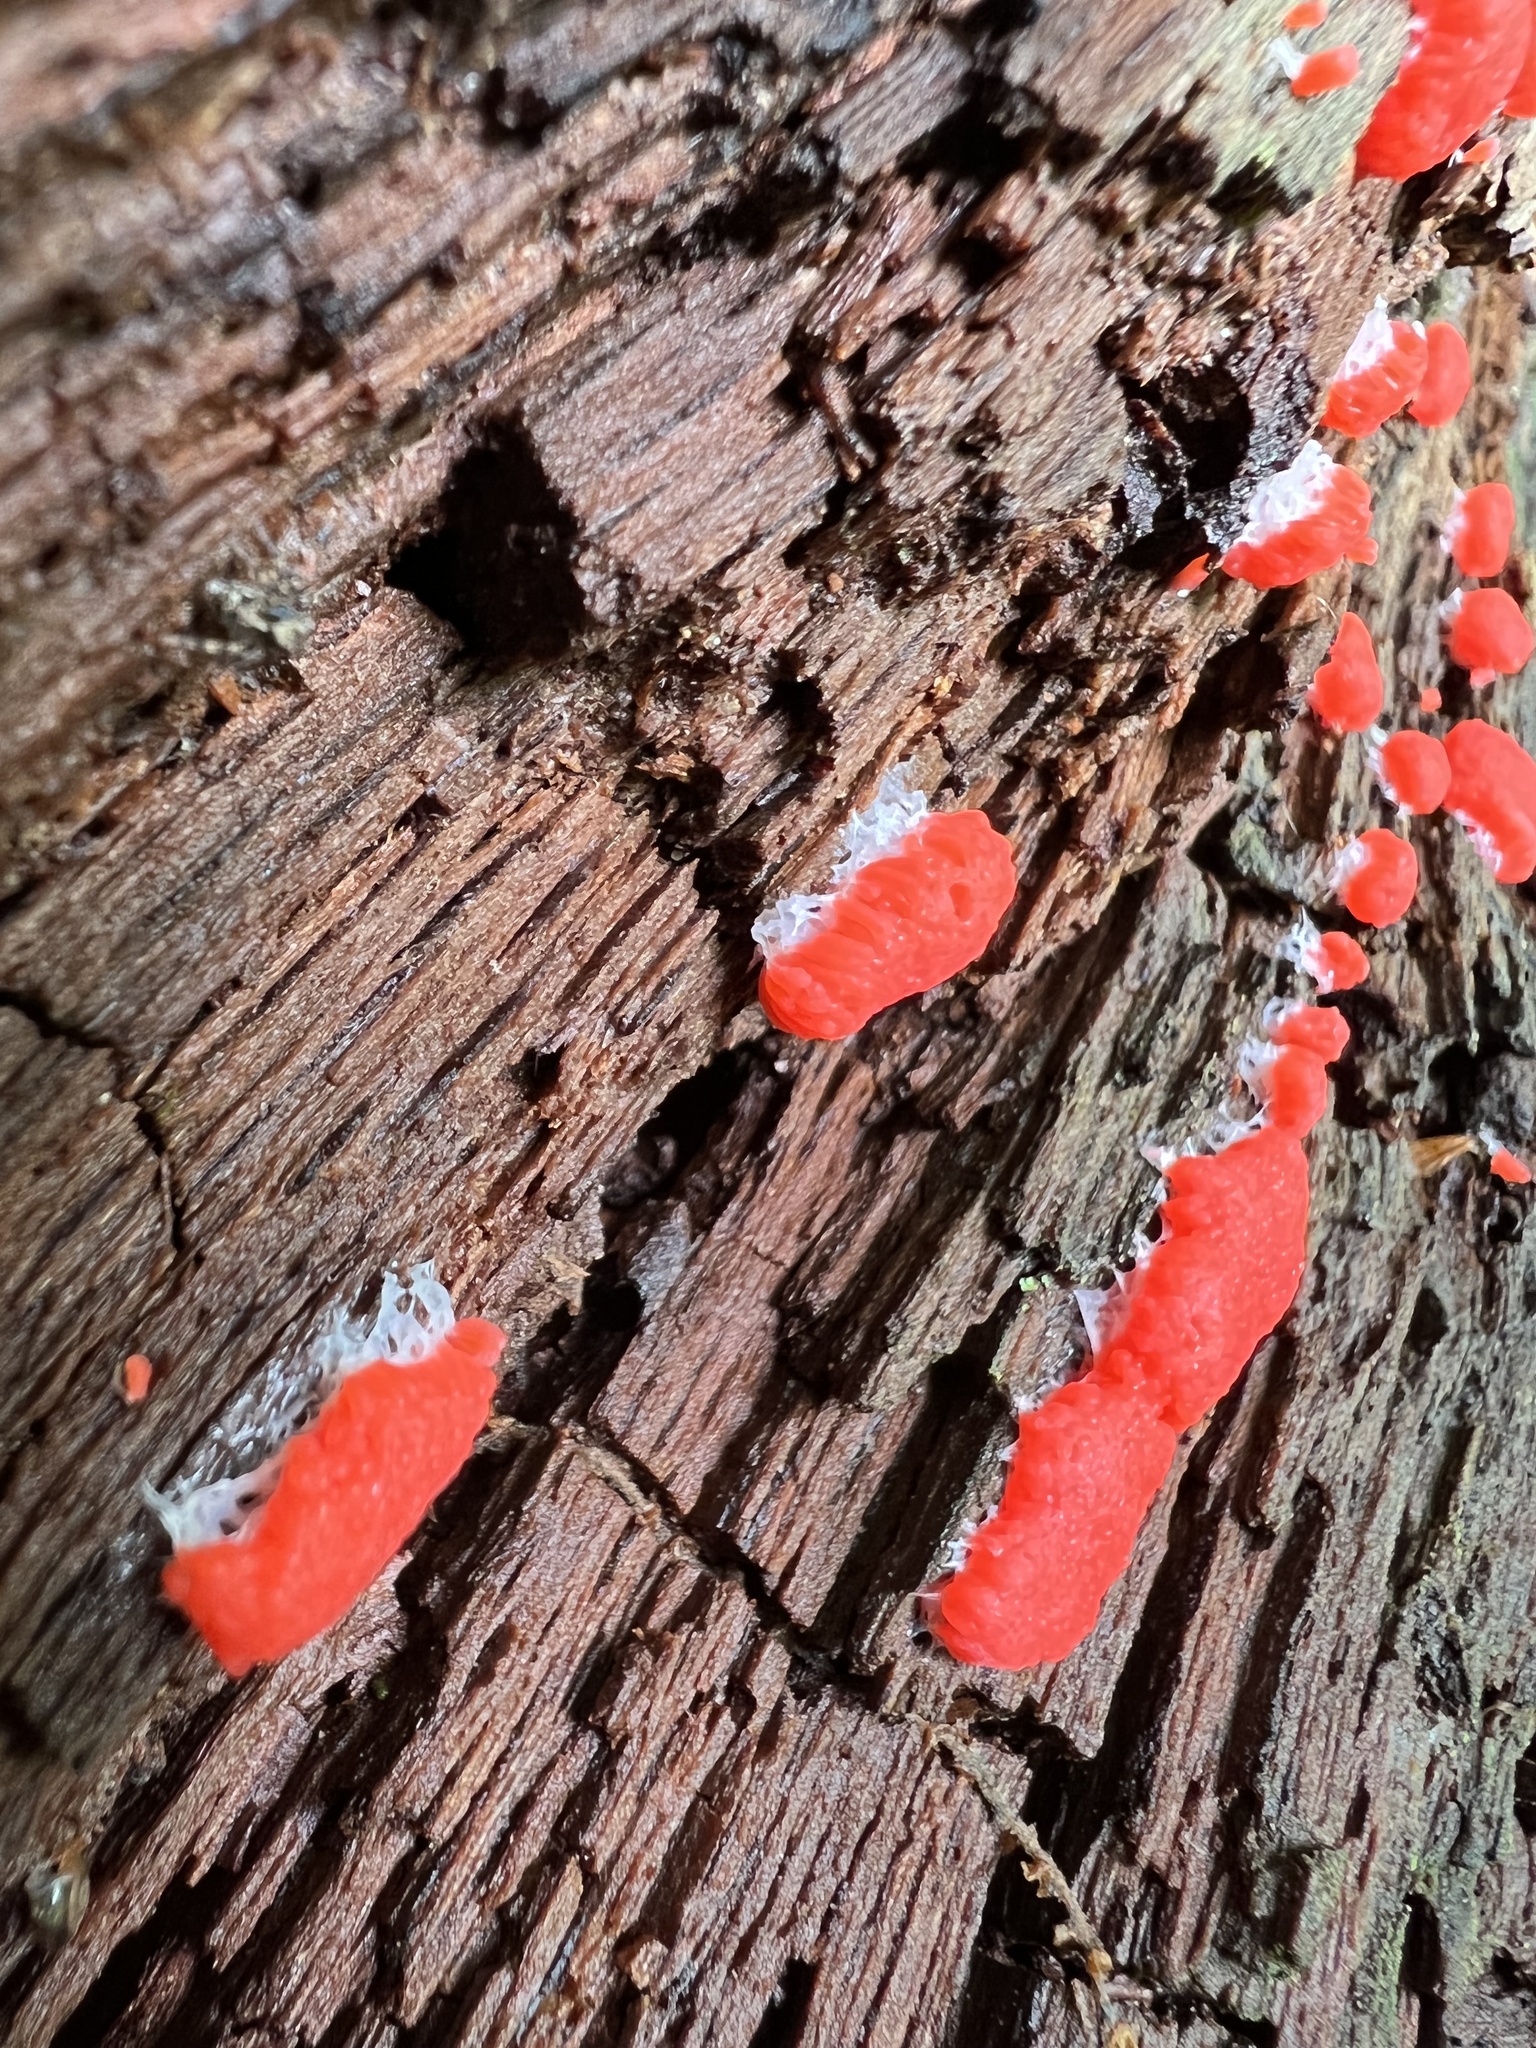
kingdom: Protozoa
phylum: Mycetozoa
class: Myxomycetes
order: Cribrariales
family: Tubiferaceae
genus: Tubifera
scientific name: Tubifera ferruginosa
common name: Red raspberry slime mold
